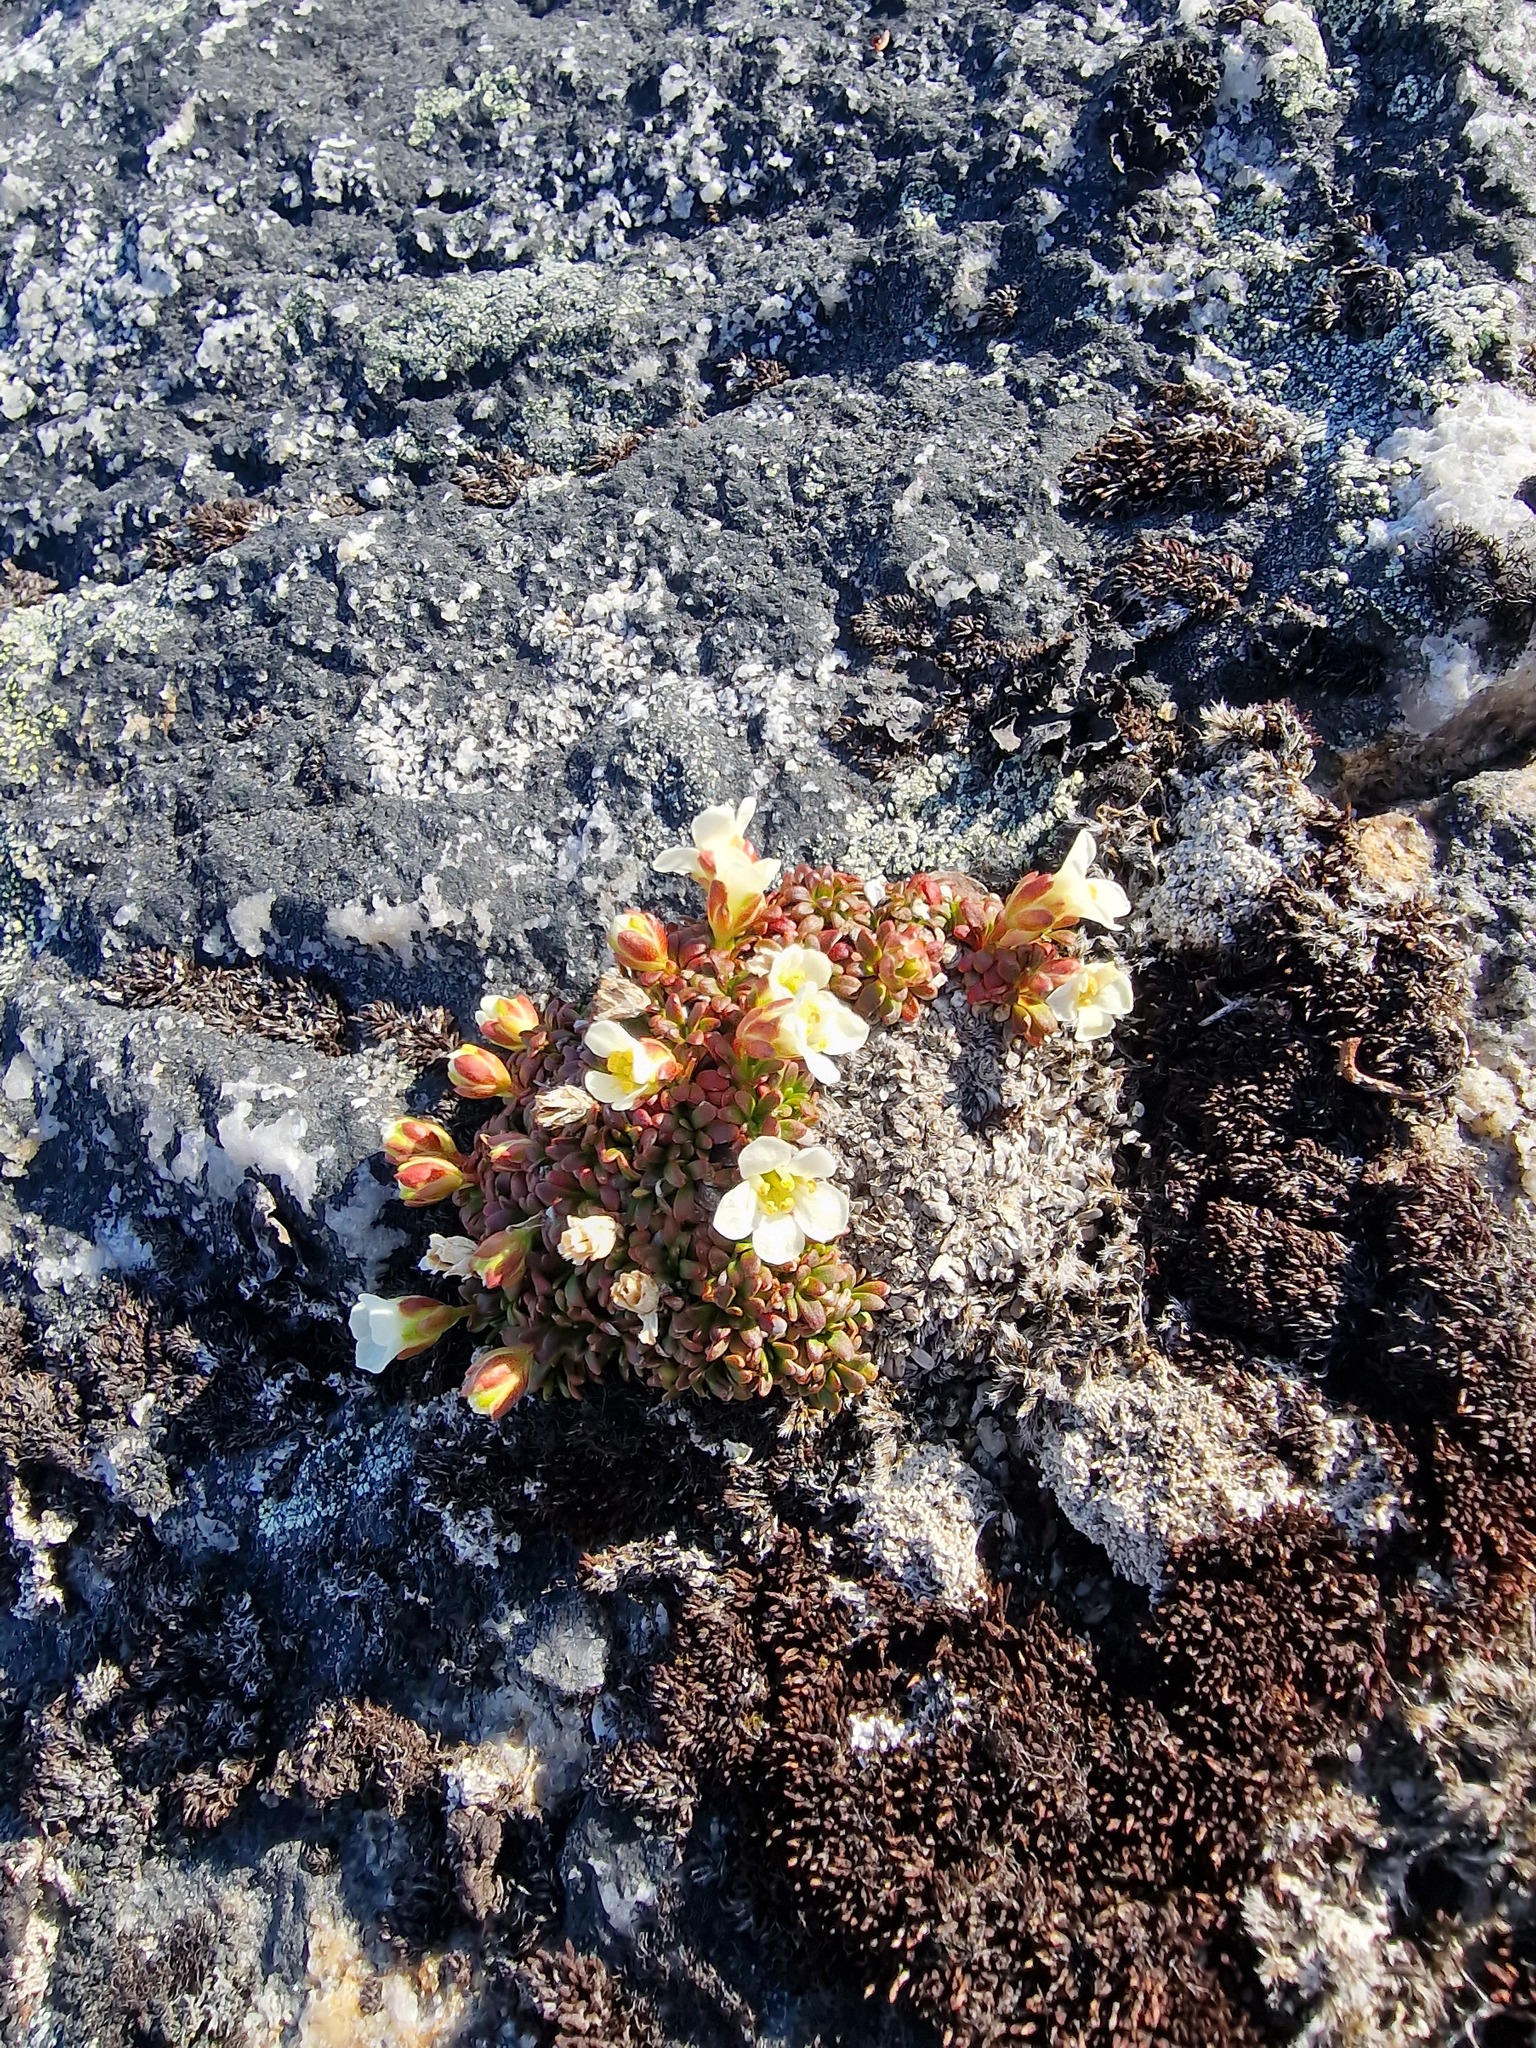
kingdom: Plantae
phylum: Tracheophyta
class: Magnoliopsida
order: Ericales
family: Diapensiaceae
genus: Diapensia
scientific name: Diapensia lapponica
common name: Diapensia
